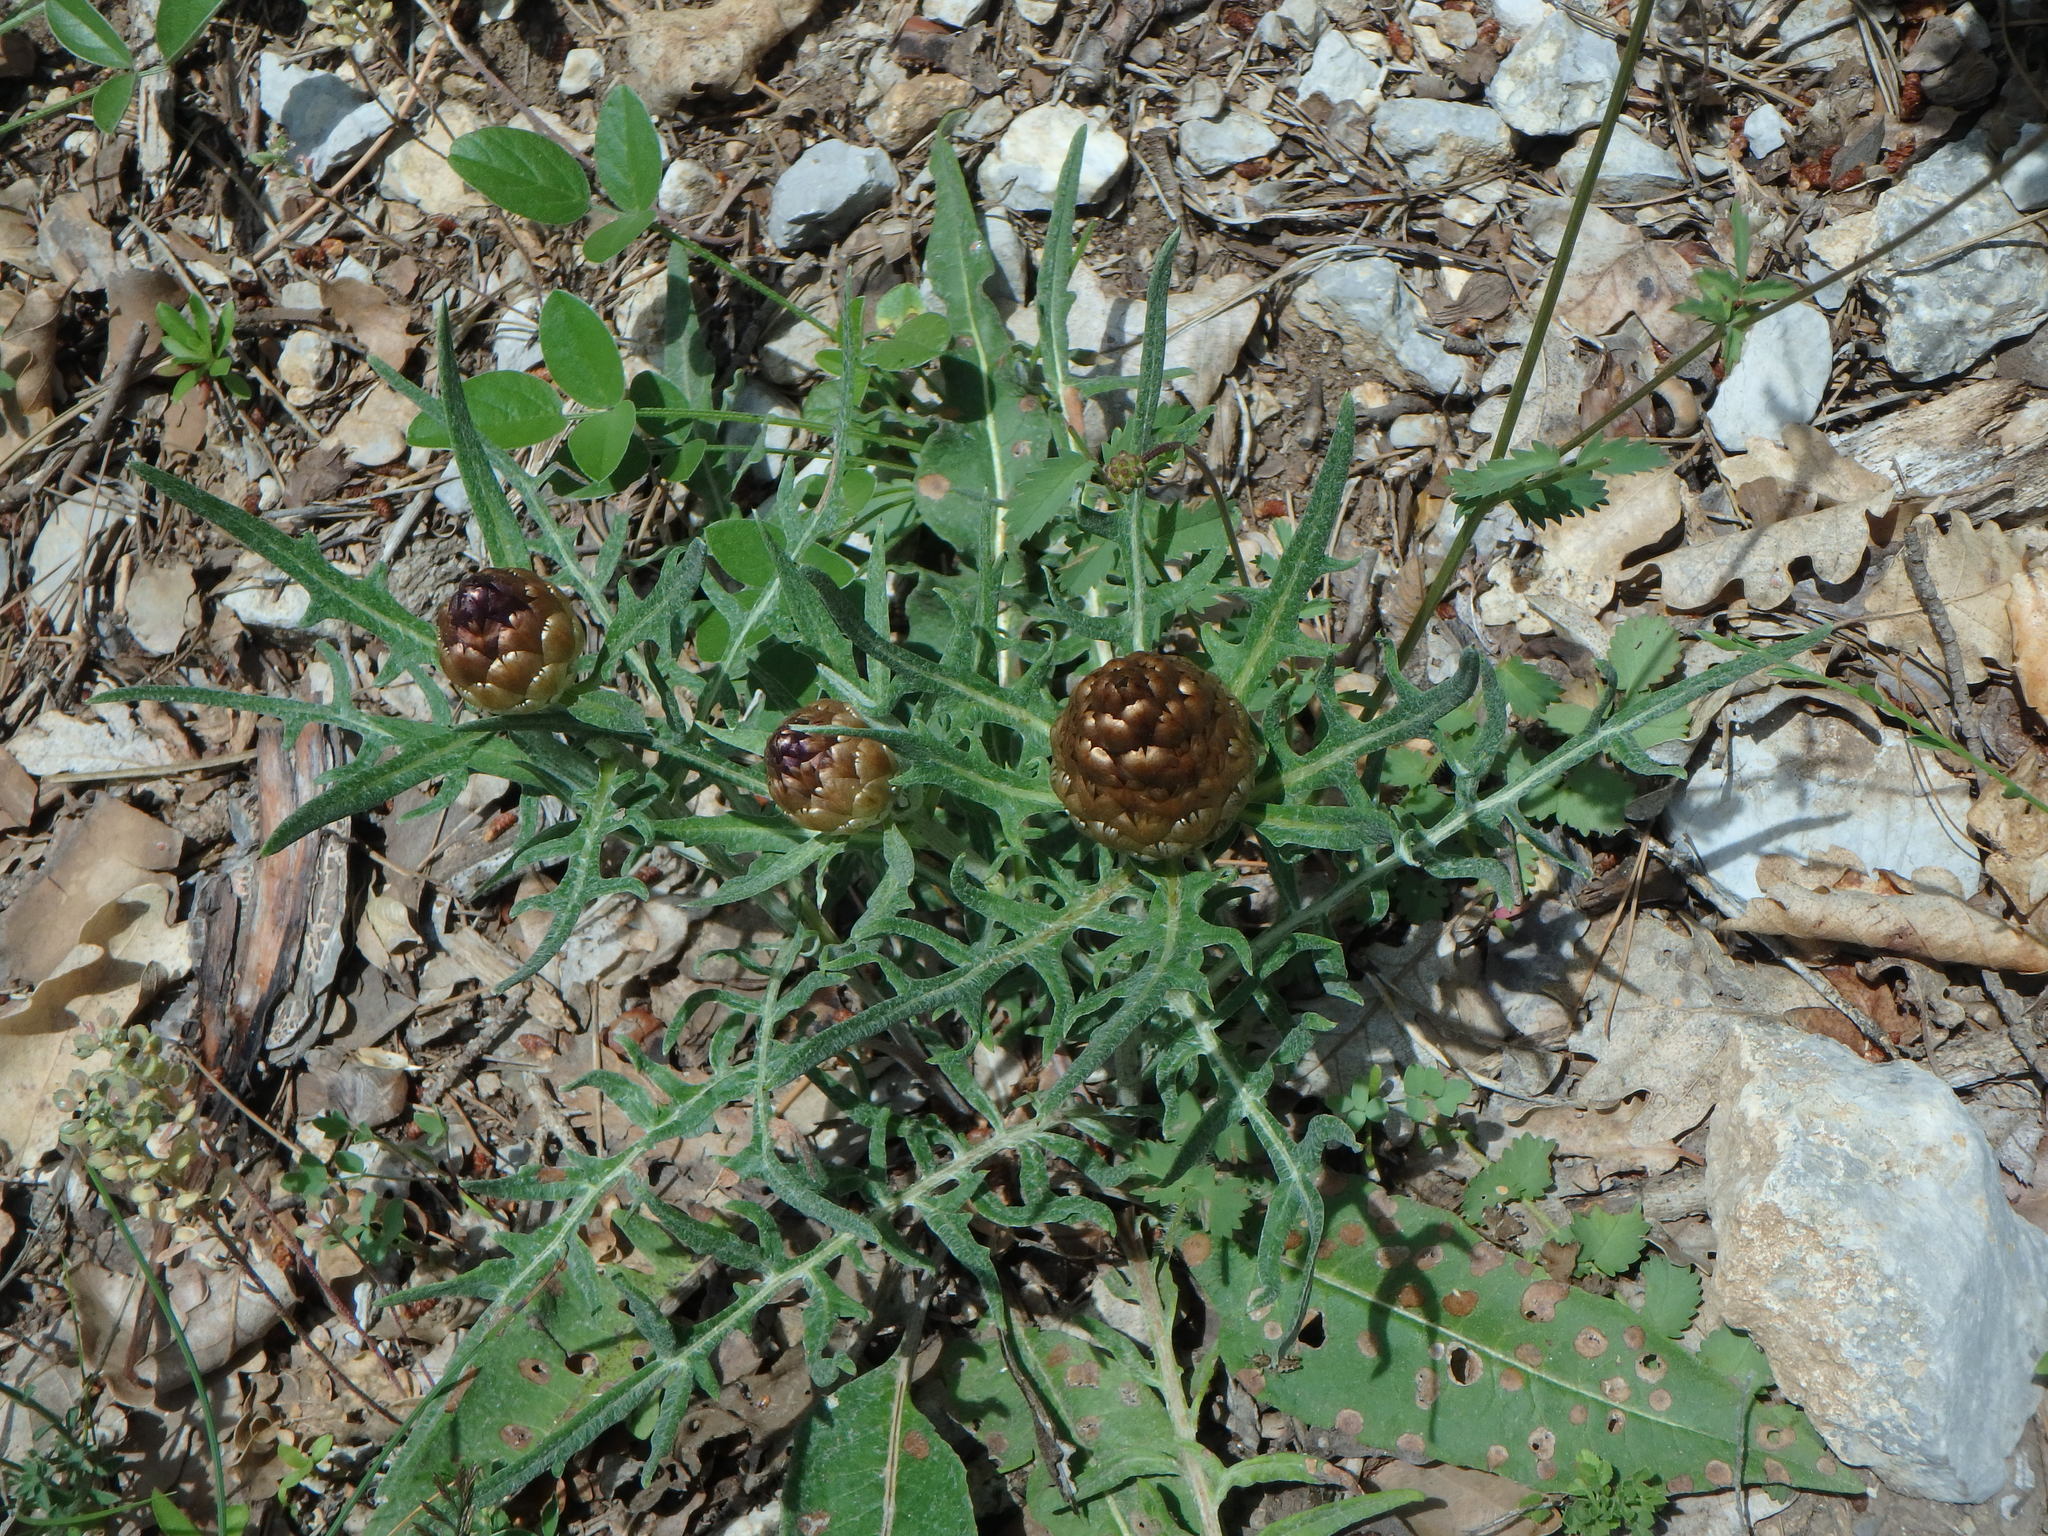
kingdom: Plantae
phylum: Tracheophyta
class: Magnoliopsida
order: Asterales
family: Asteraceae
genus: Leuzea
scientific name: Leuzea conifera
